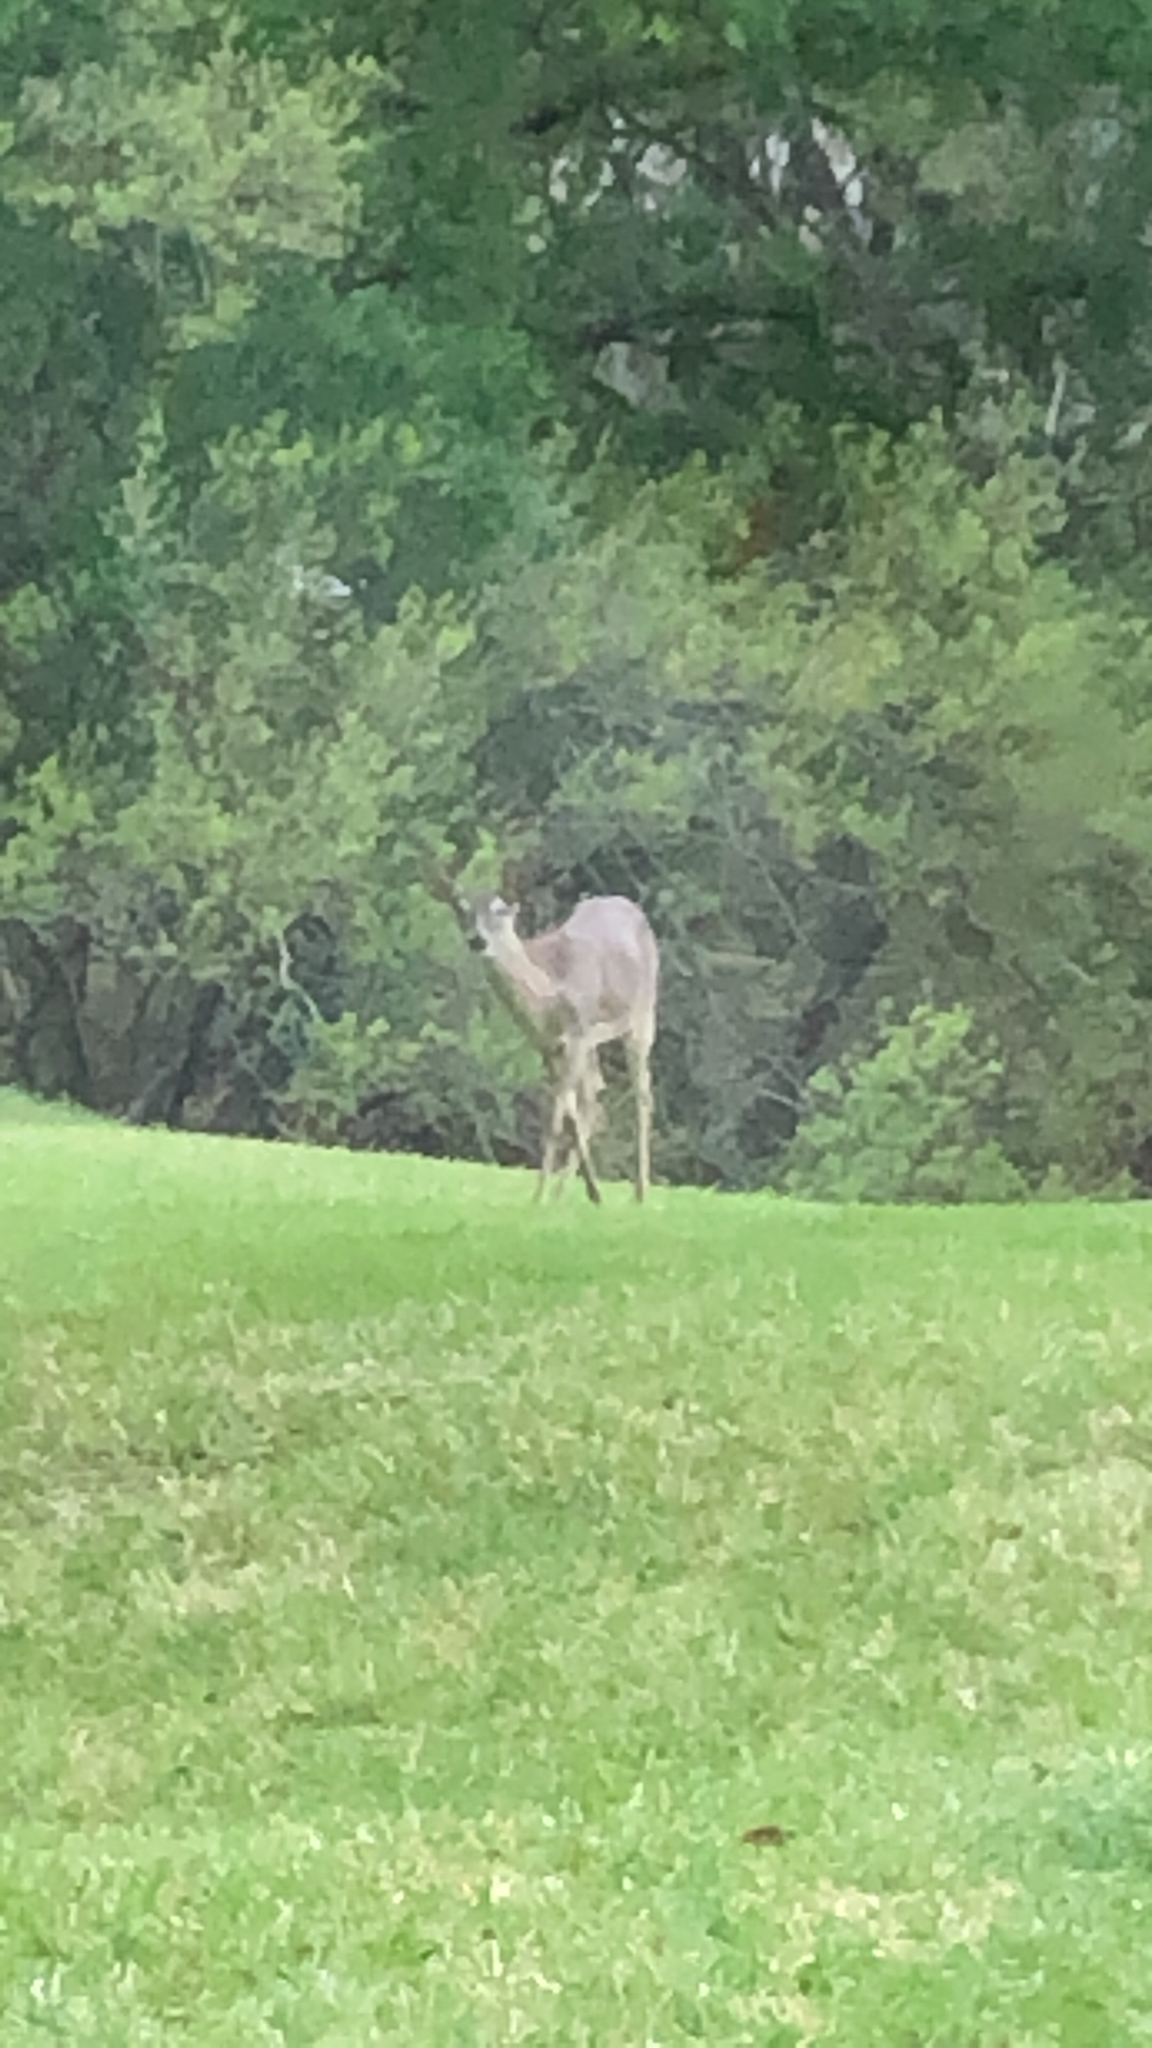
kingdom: Animalia
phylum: Chordata
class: Mammalia
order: Artiodactyla
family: Cervidae
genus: Odocoileus
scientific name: Odocoileus virginianus
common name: White-tailed deer
